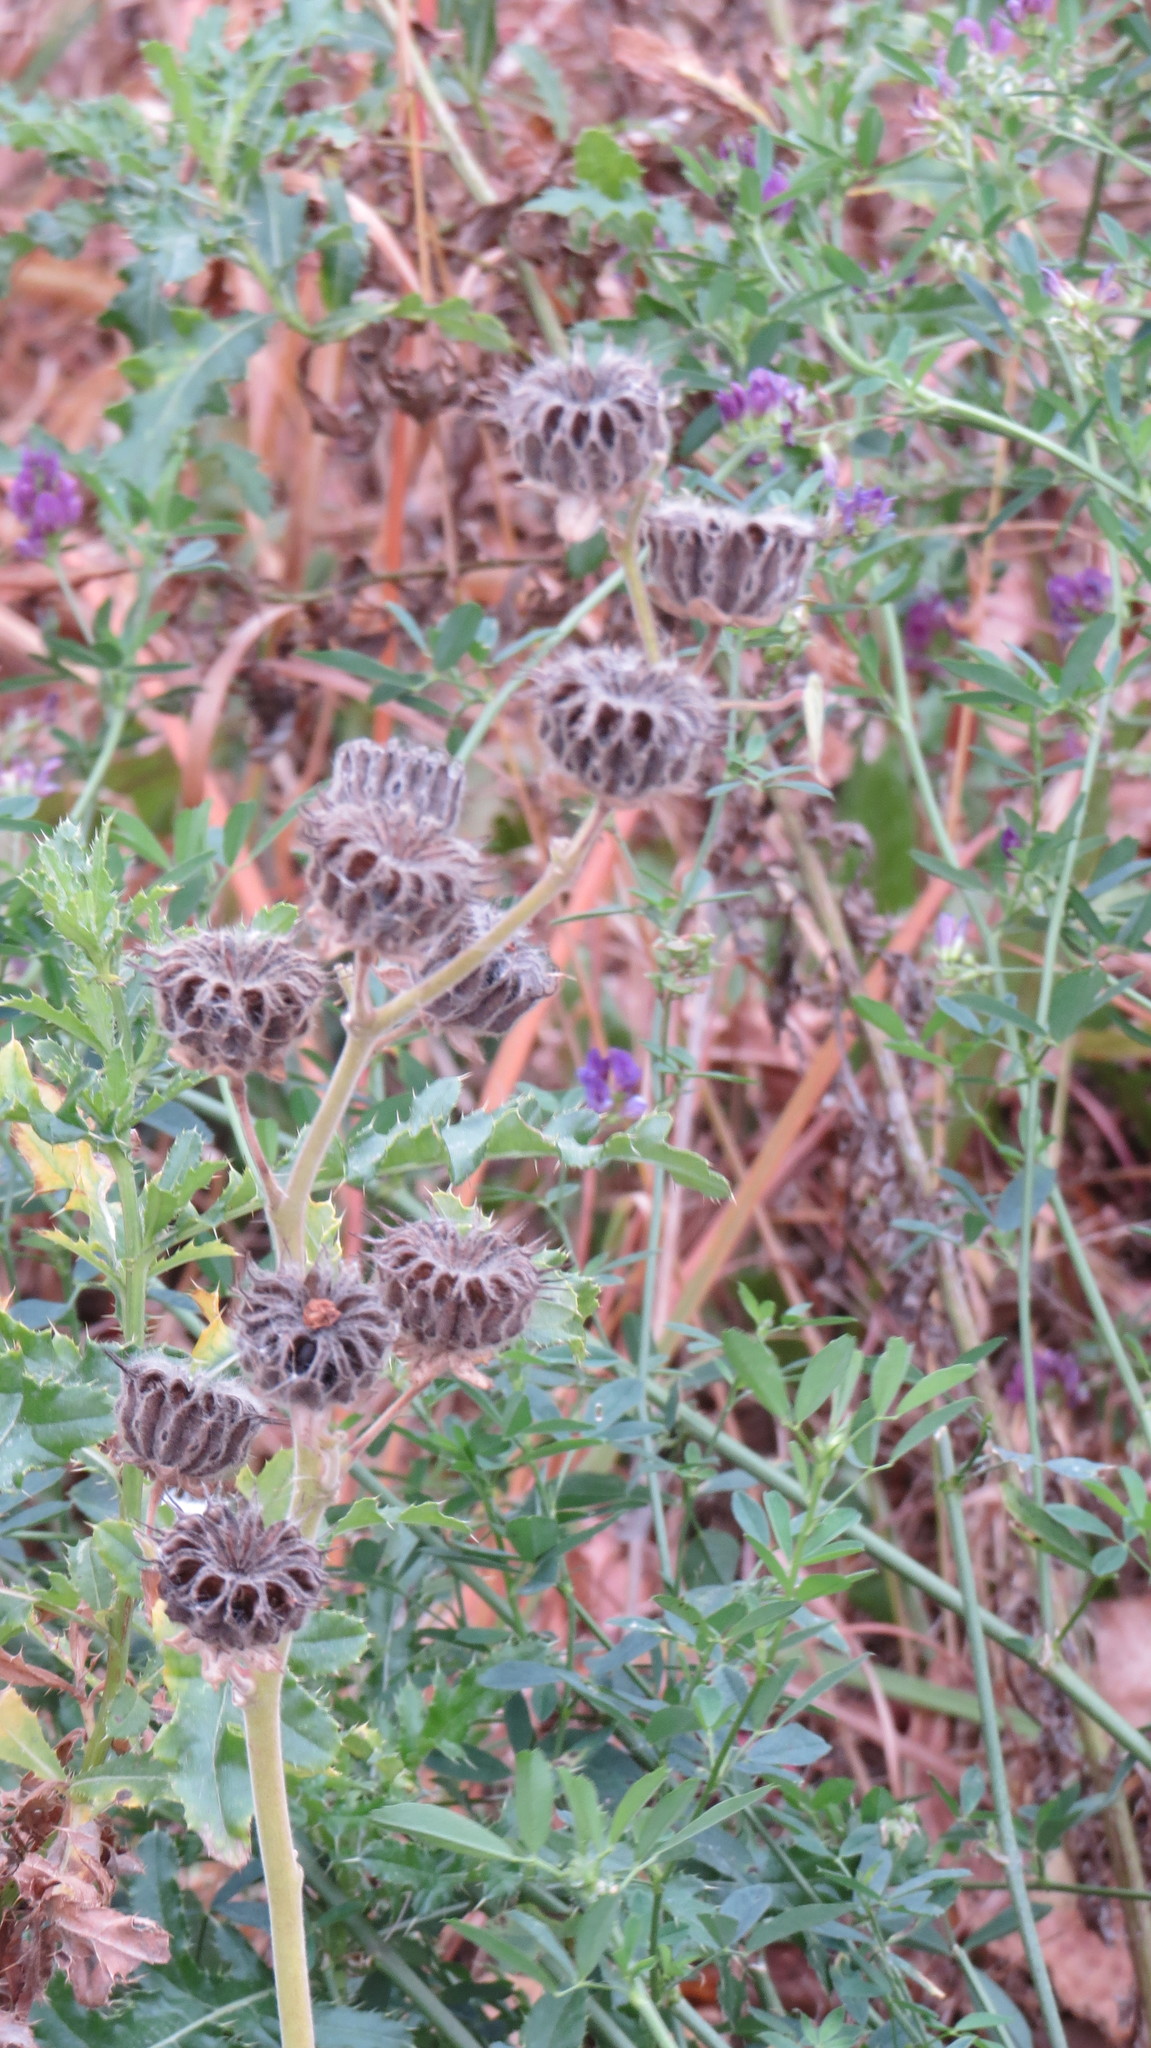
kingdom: Plantae
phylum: Tracheophyta
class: Magnoliopsida
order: Malvales
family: Malvaceae
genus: Abutilon
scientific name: Abutilon theophrasti
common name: Velvetleaf
